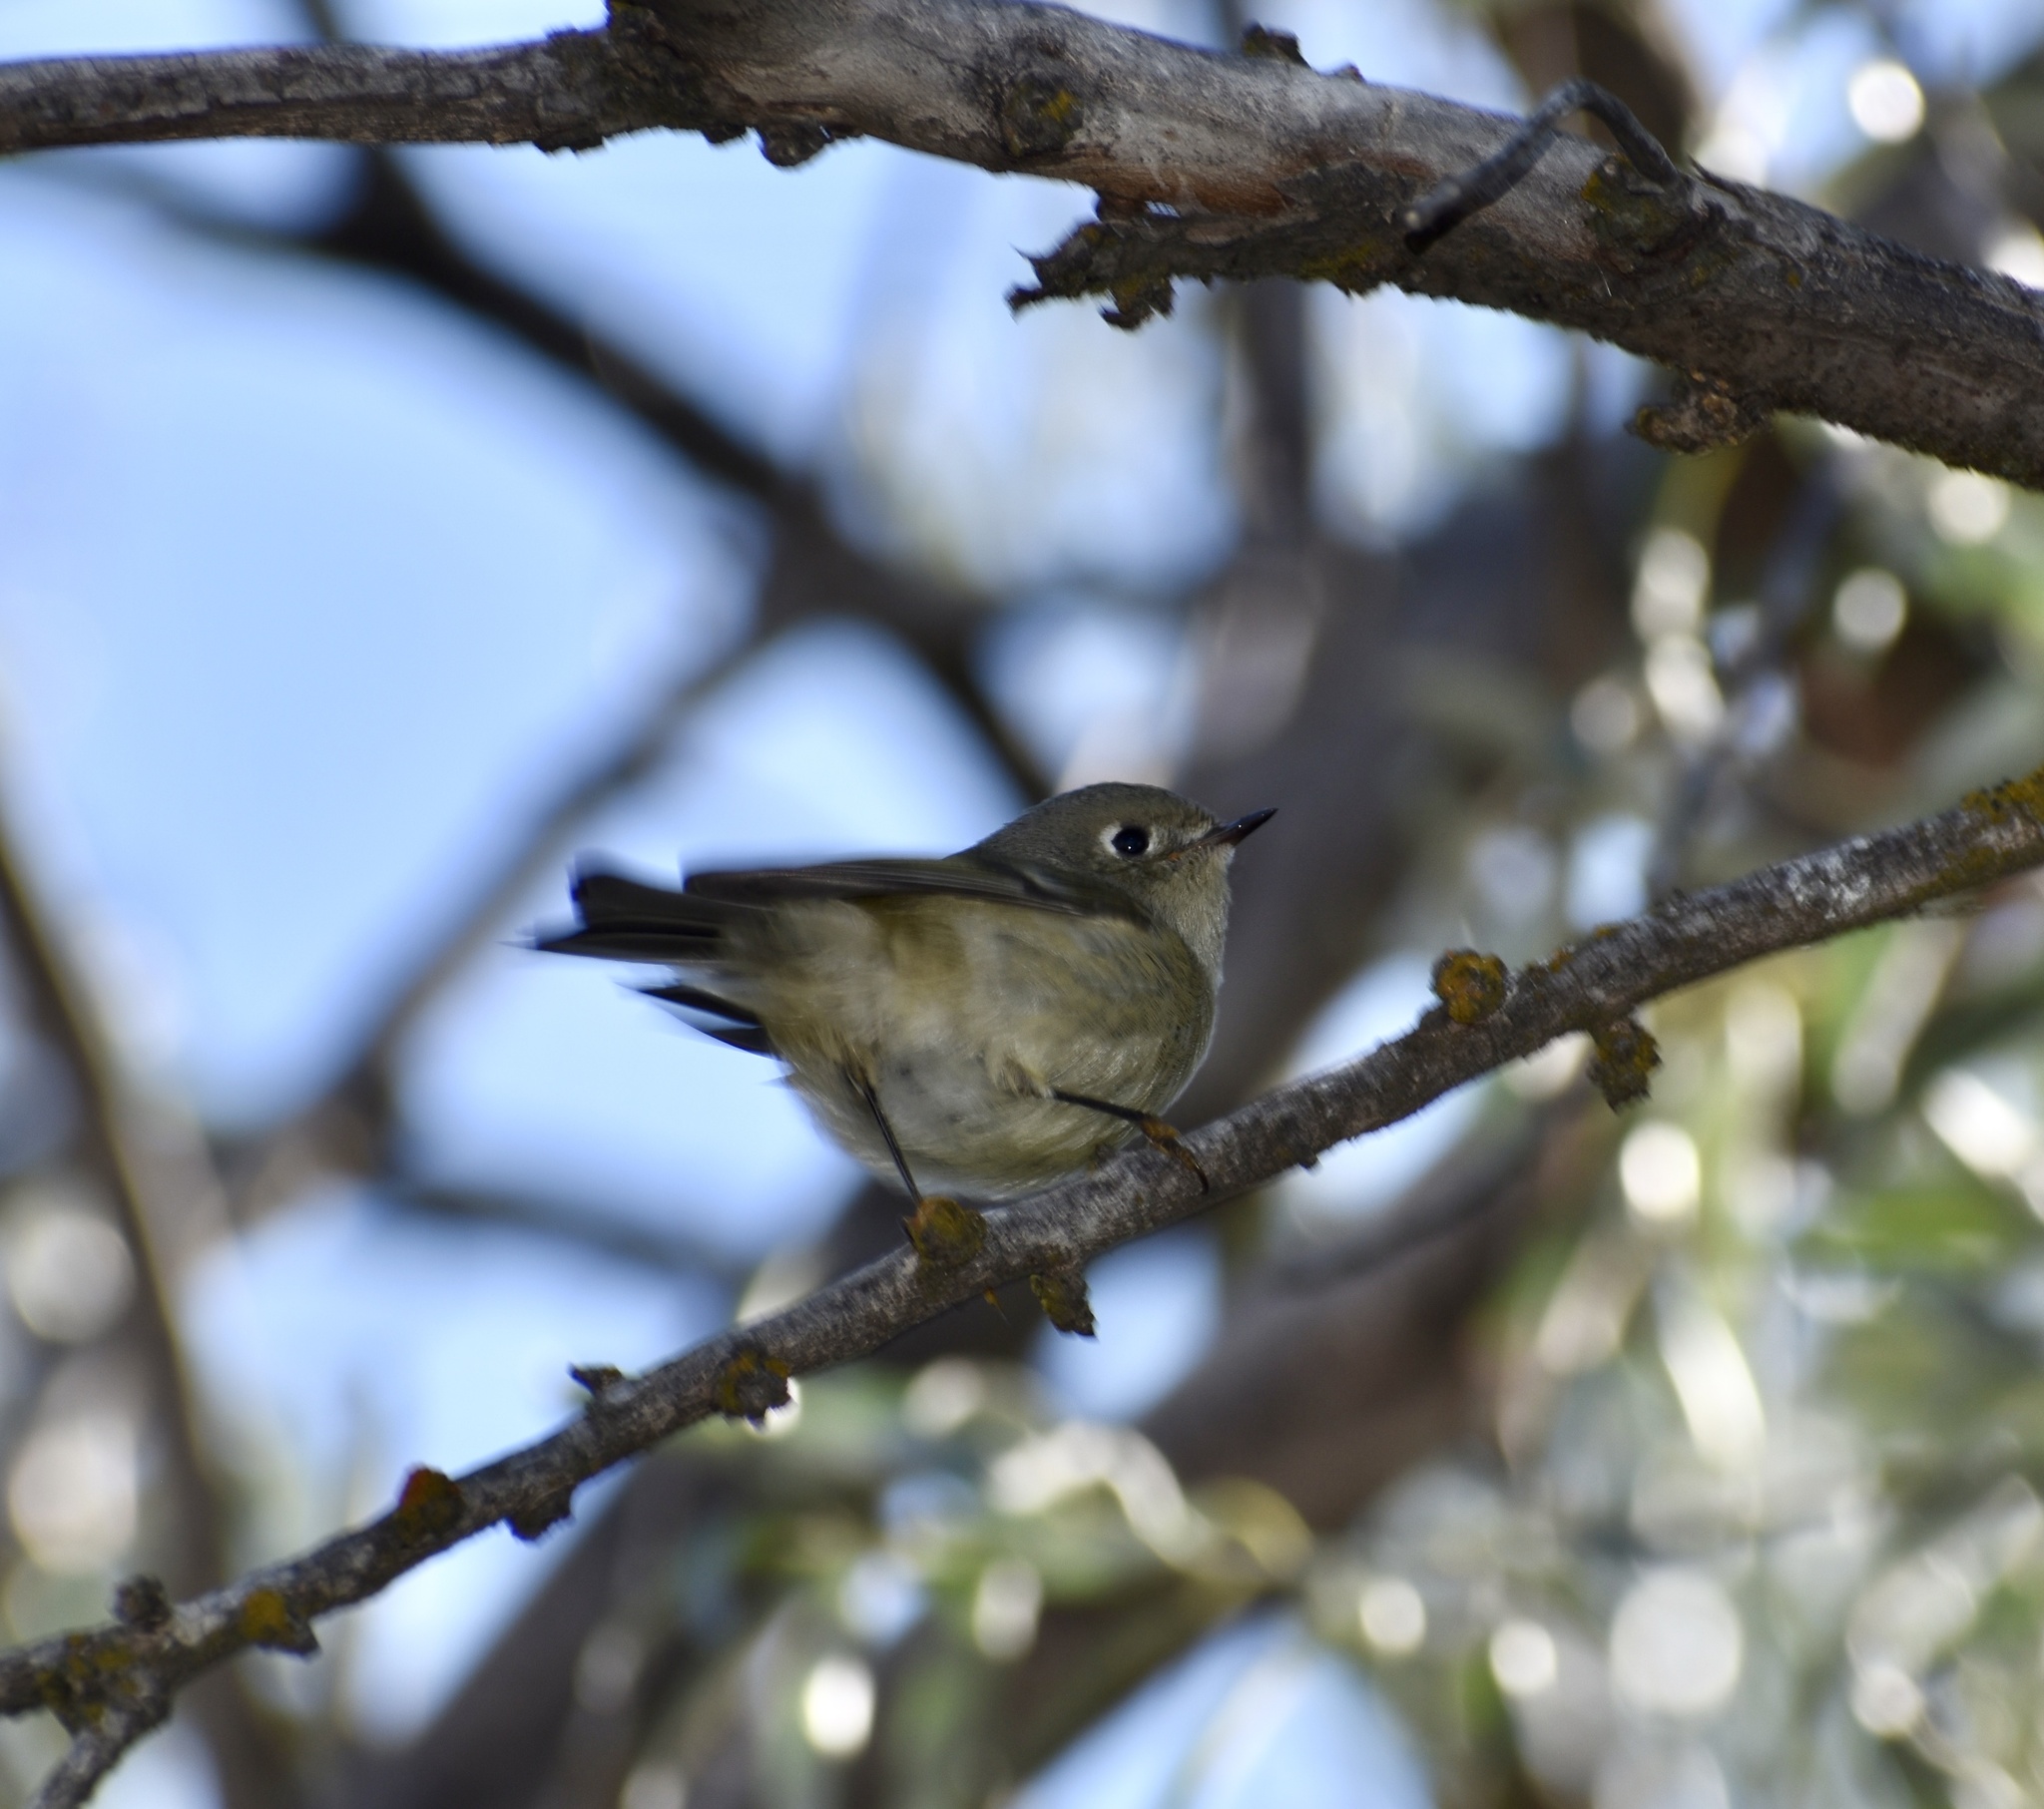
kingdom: Animalia
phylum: Chordata
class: Aves
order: Passeriformes
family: Regulidae
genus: Regulus
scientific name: Regulus calendula
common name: Ruby-crowned kinglet
